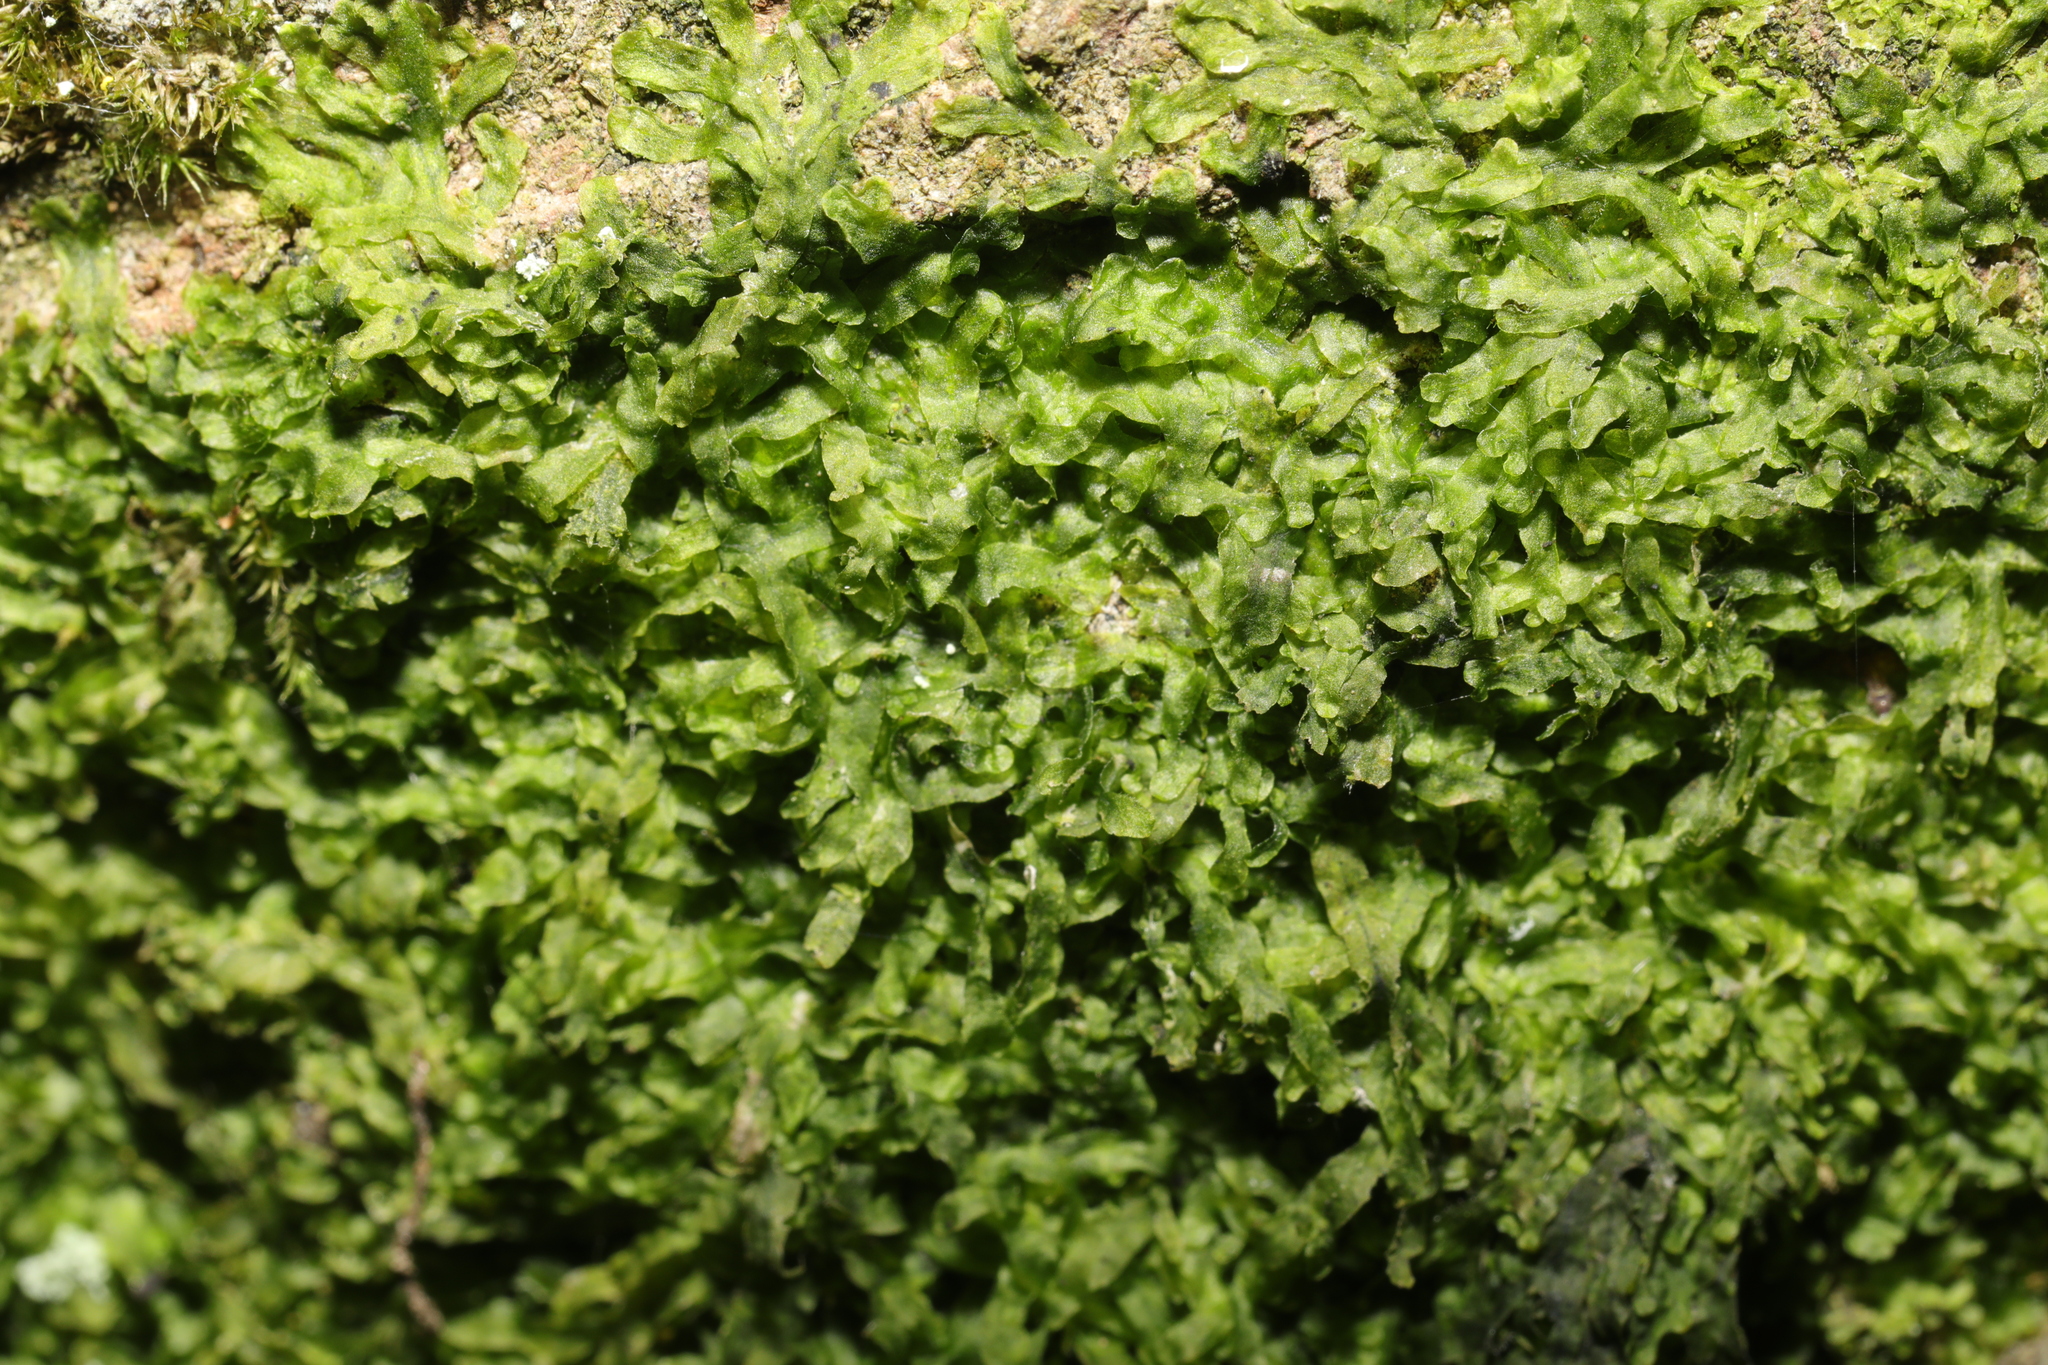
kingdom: Plantae
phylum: Marchantiophyta
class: Jungermanniopsida
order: Metzgeriales
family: Metzgeriaceae
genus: Metzgeria
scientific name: Metzgeria furcata
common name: Forked veilwort
